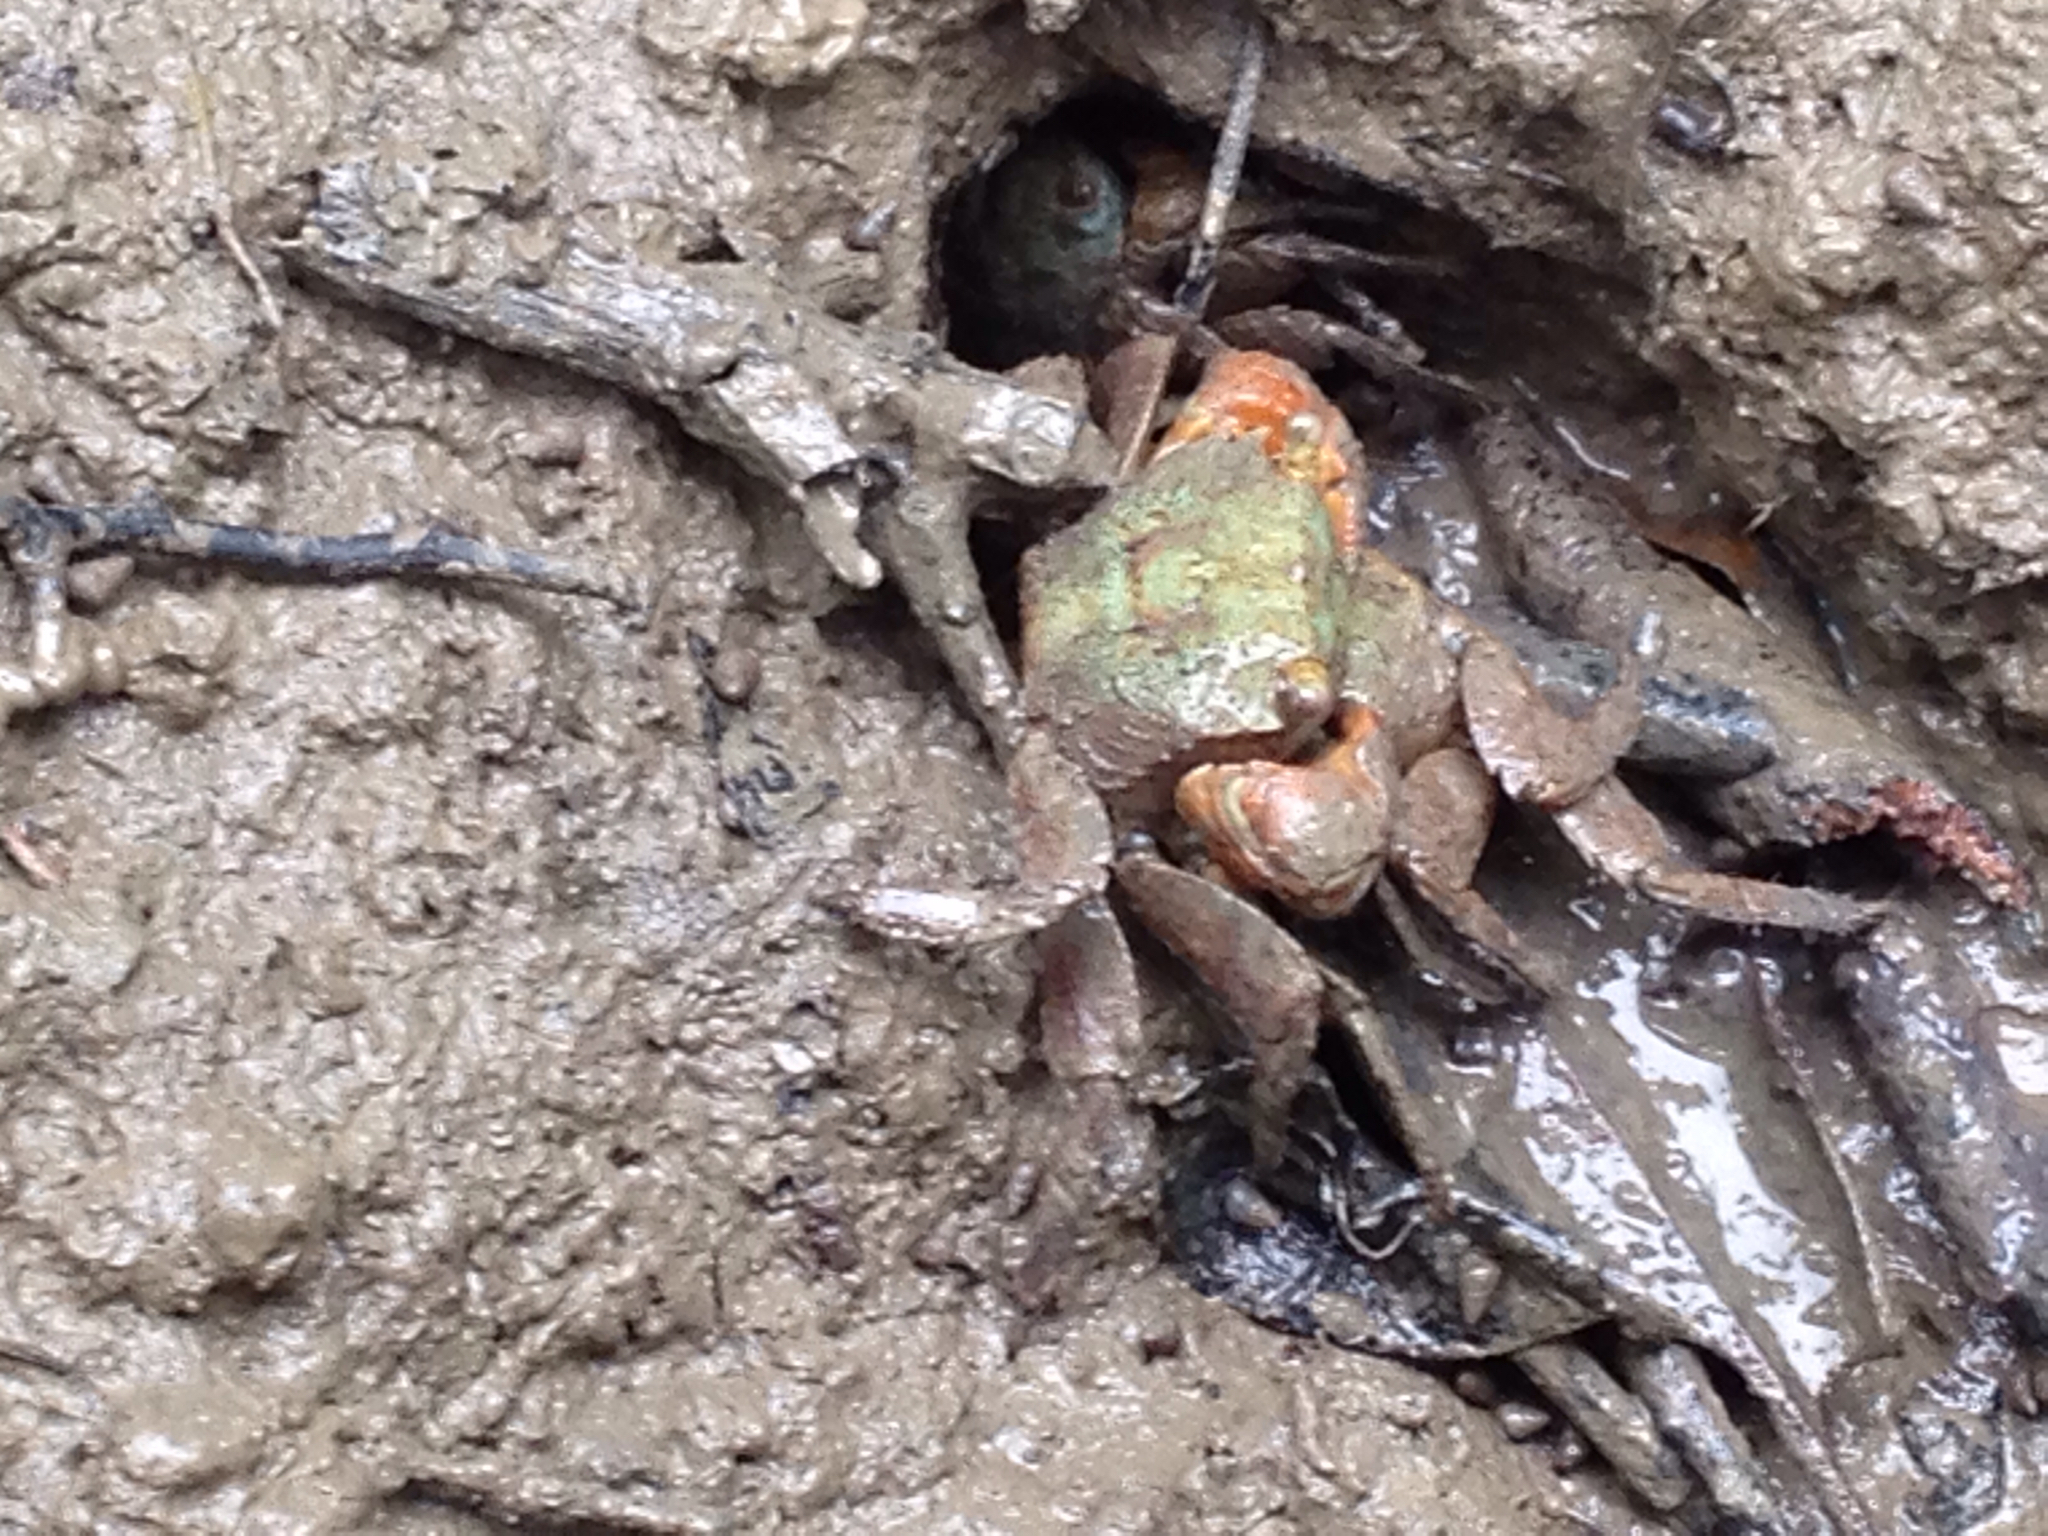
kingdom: Animalia
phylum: Arthropoda
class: Malacostraca
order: Decapoda
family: Sesarmidae
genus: Parasesarma
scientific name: Parasesarma bidens
